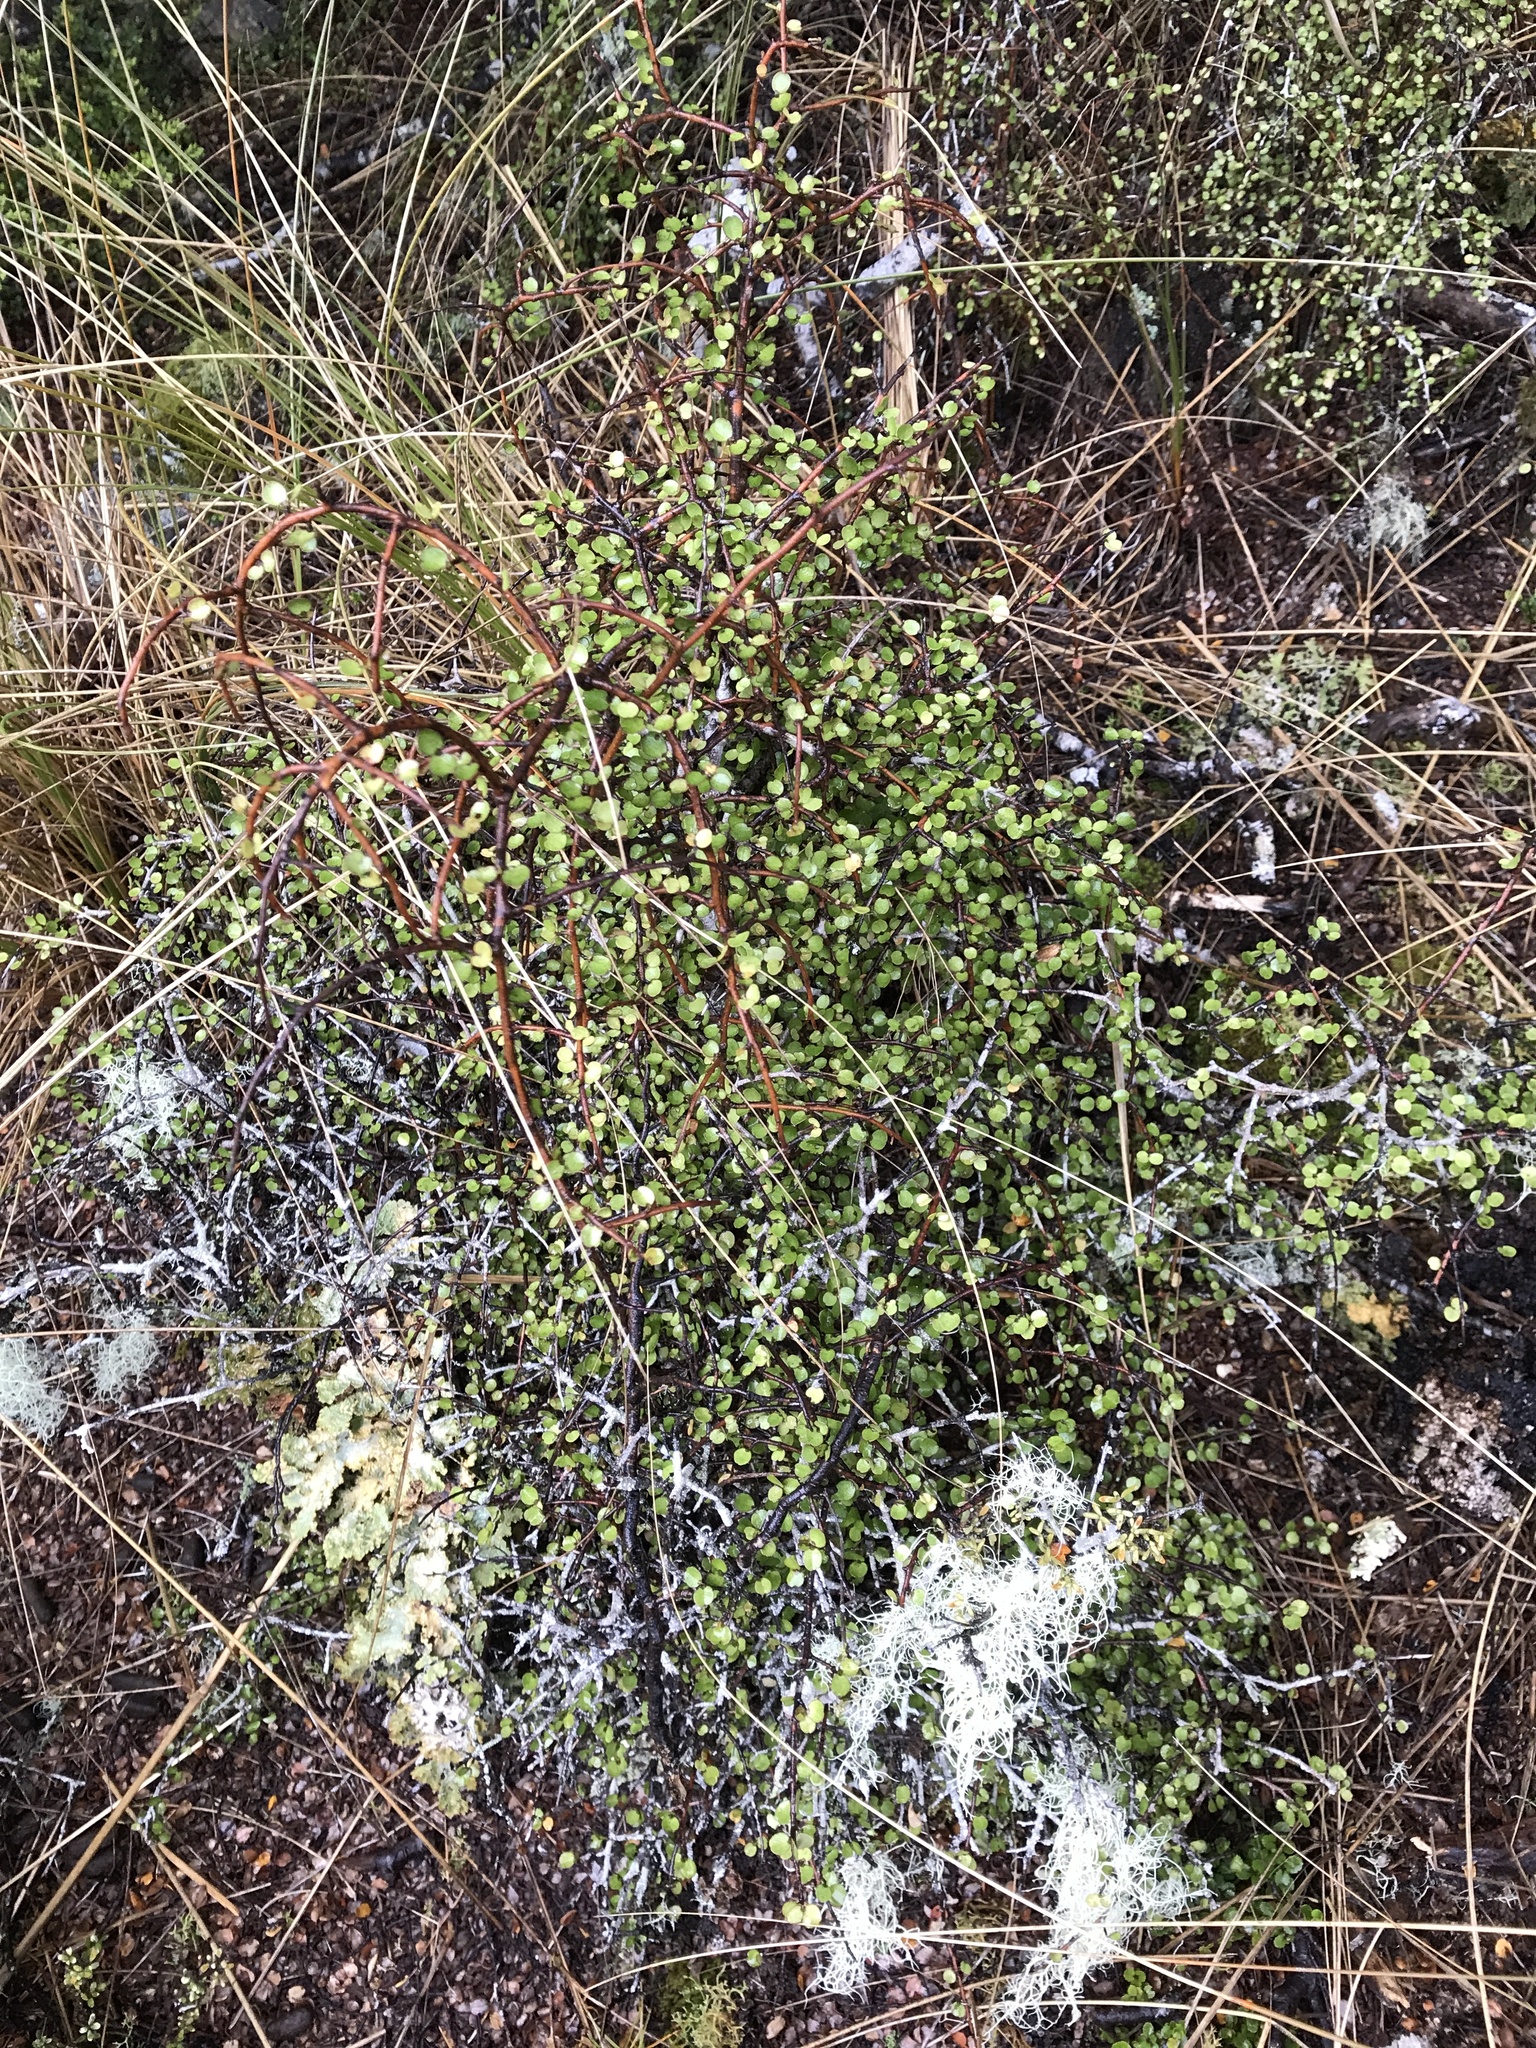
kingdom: Plantae
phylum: Tracheophyta
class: Magnoliopsida
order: Ericales
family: Primulaceae
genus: Myrsine
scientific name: Myrsine divaricata
